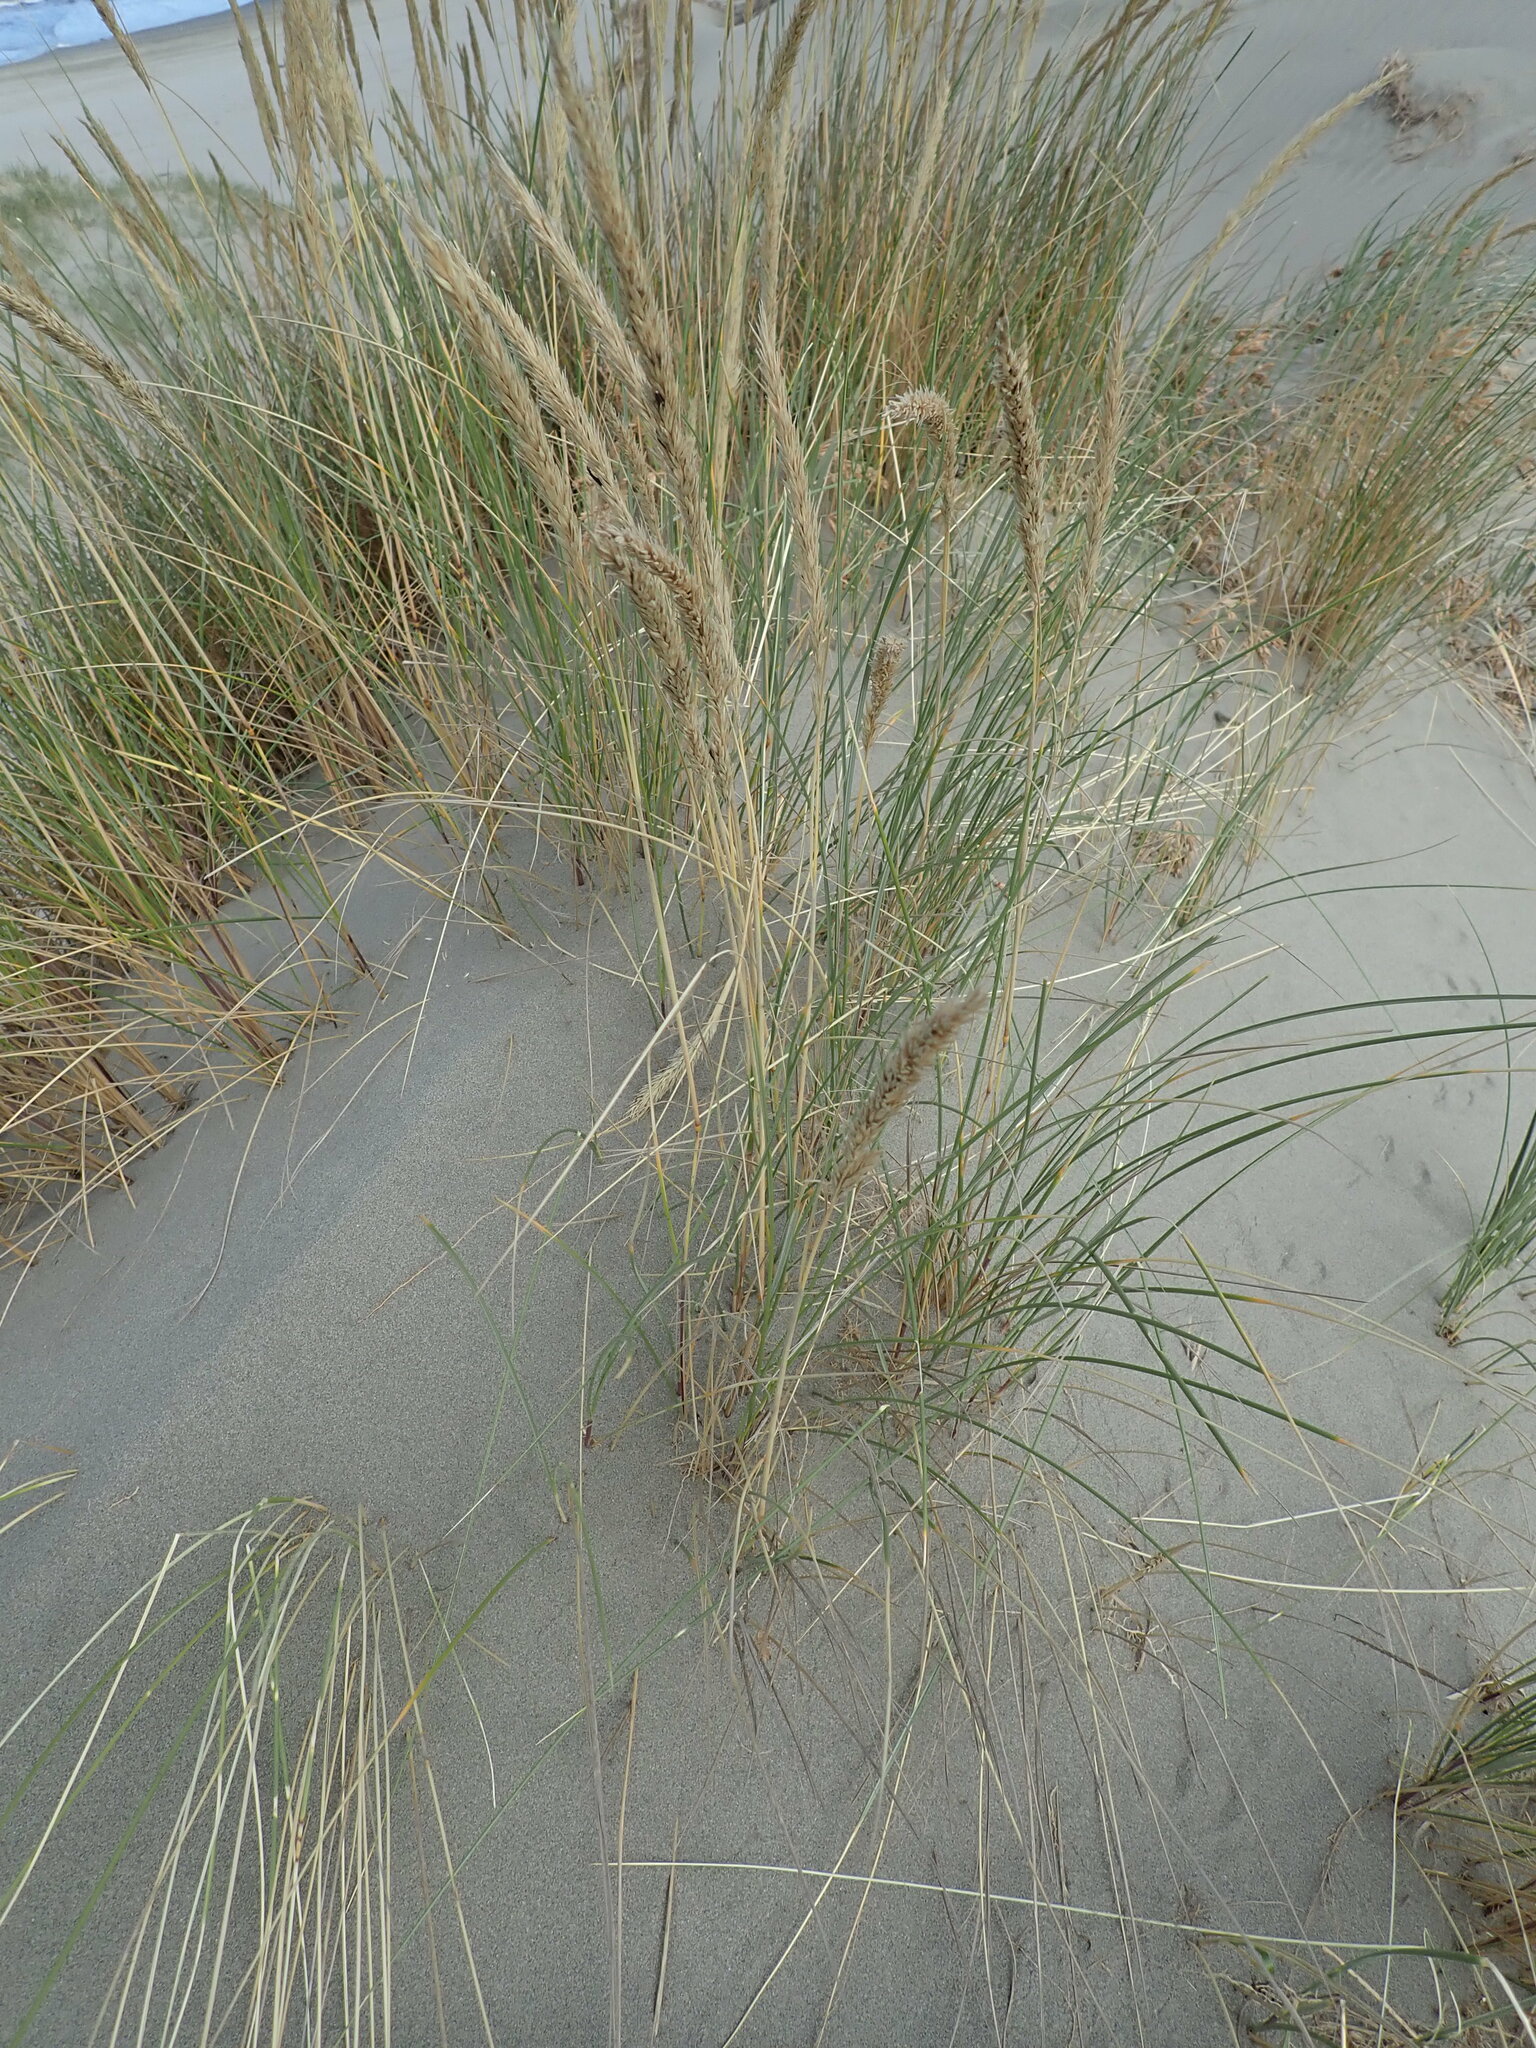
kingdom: Plantae
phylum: Tracheophyta
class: Liliopsida
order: Poales
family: Poaceae
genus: Calamagrostis
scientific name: Calamagrostis arenaria
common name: European beachgrass
